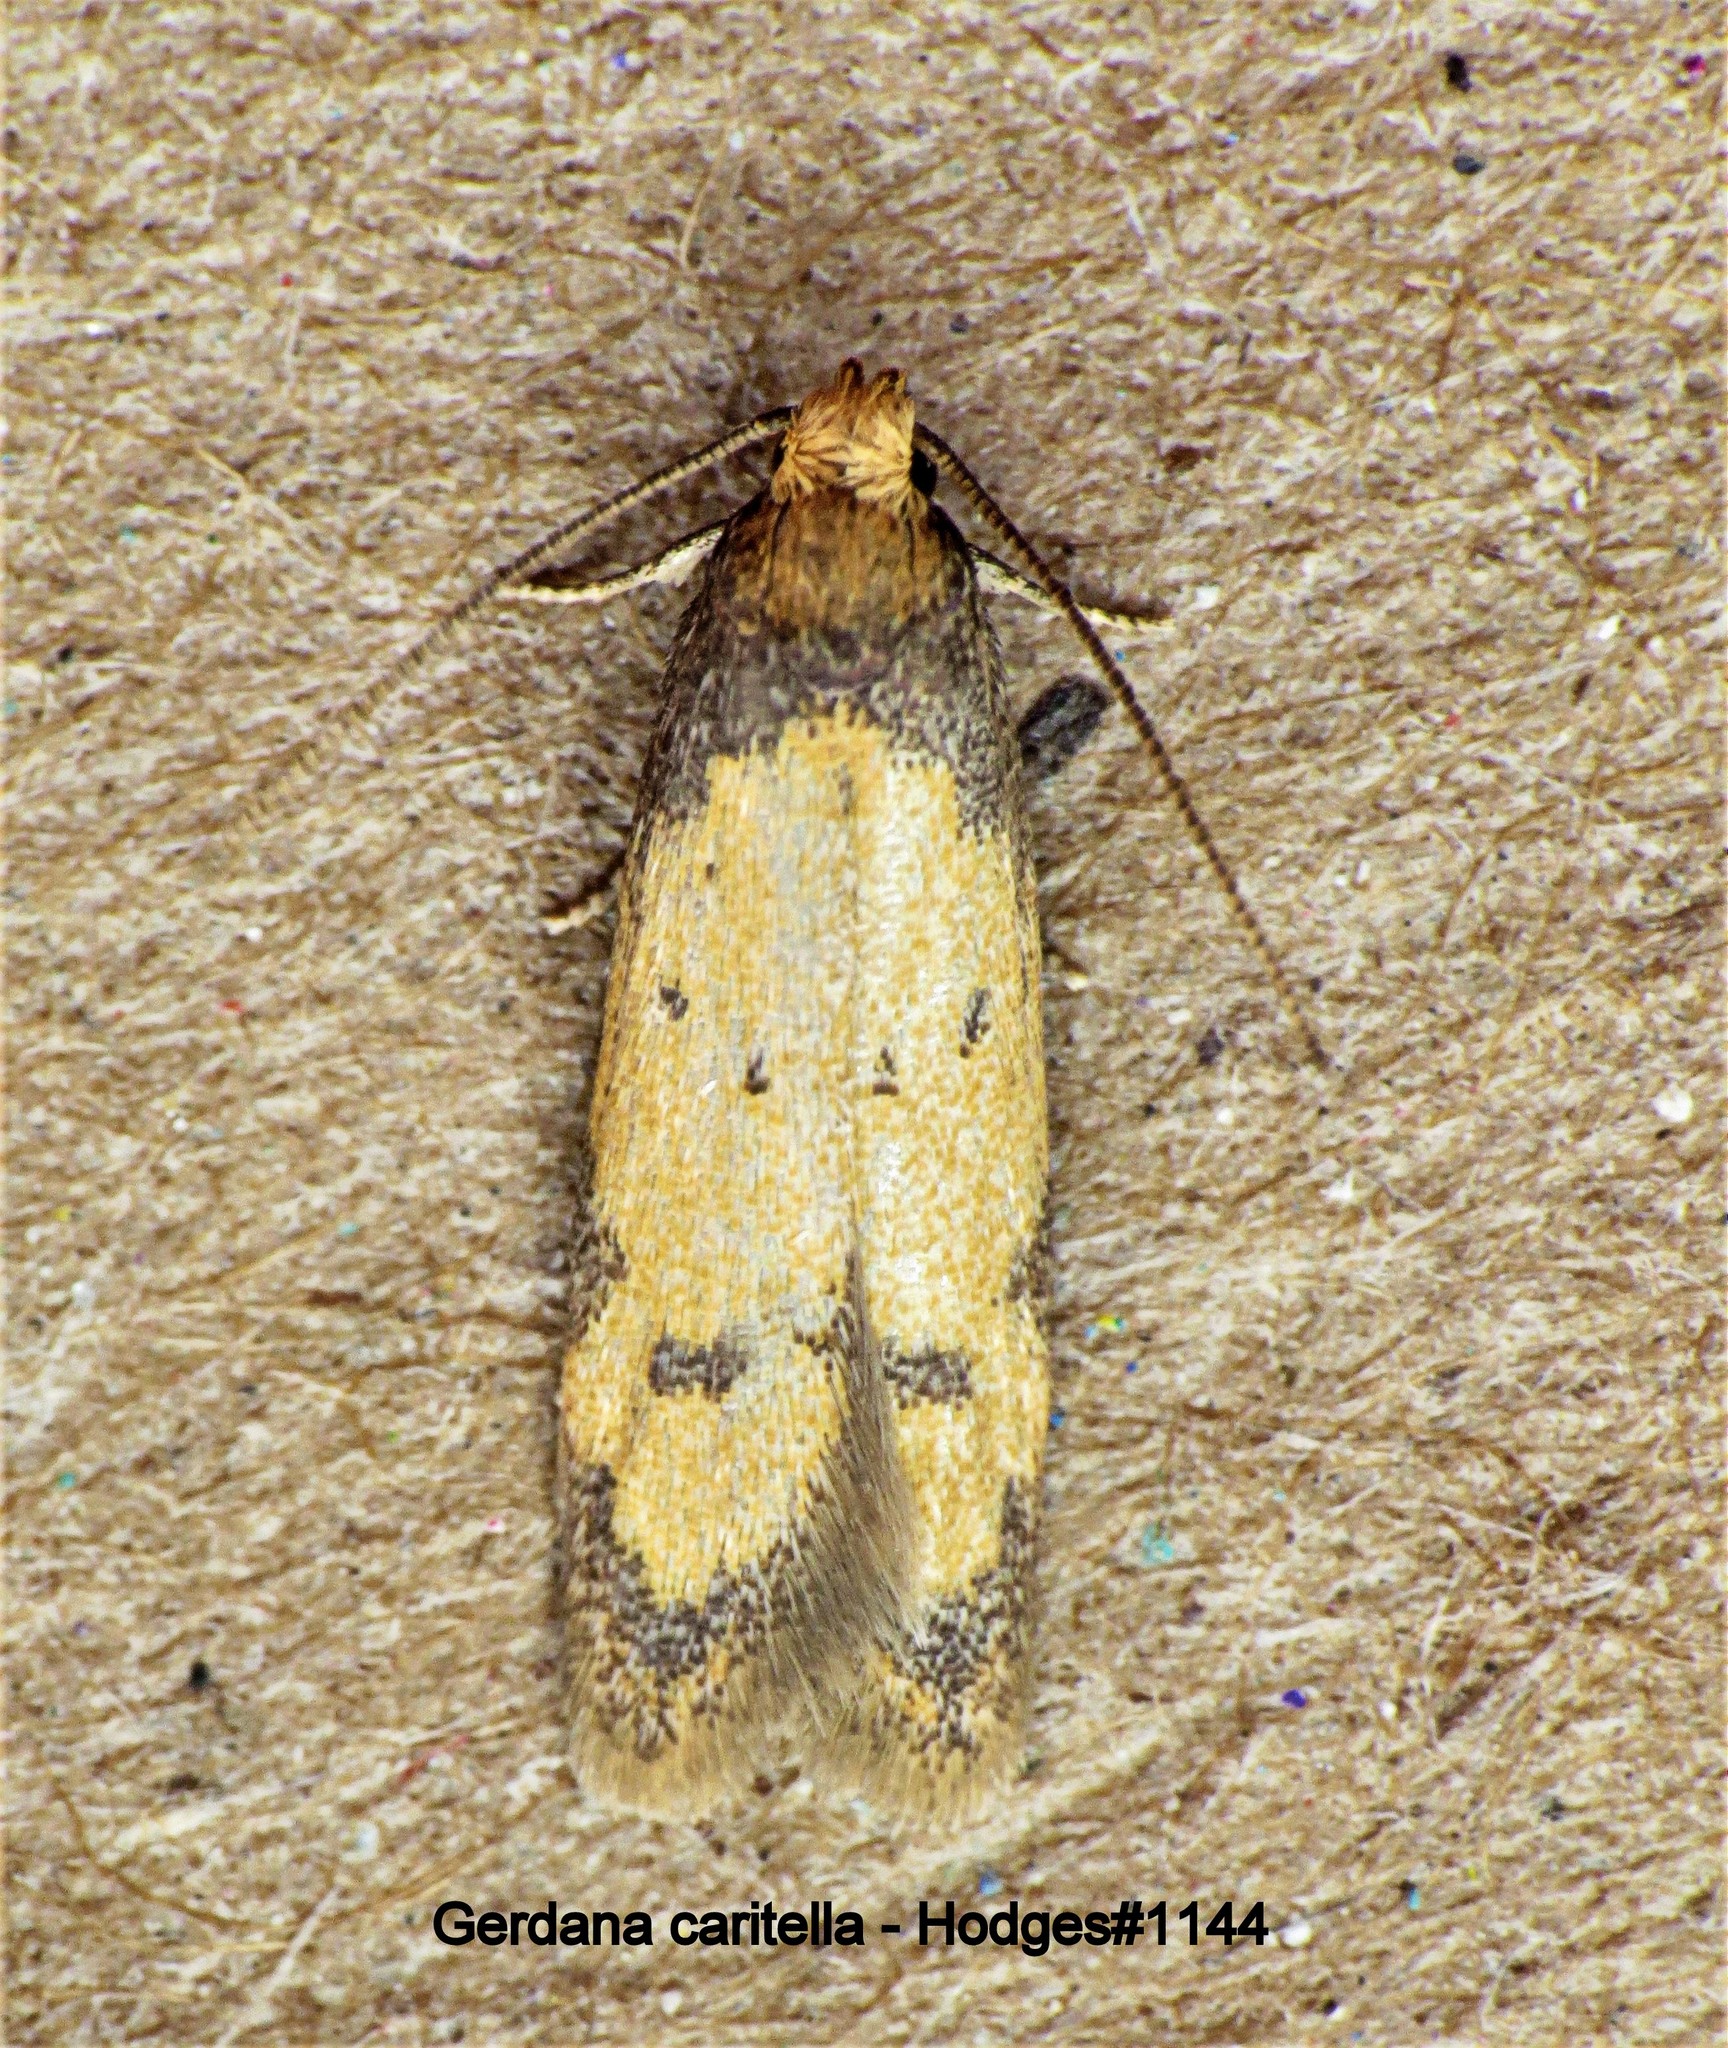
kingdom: Animalia
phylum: Arthropoda
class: Insecta
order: Lepidoptera
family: Autostichidae
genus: Gerdana
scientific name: Gerdana caritella
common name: Gerdana moth
